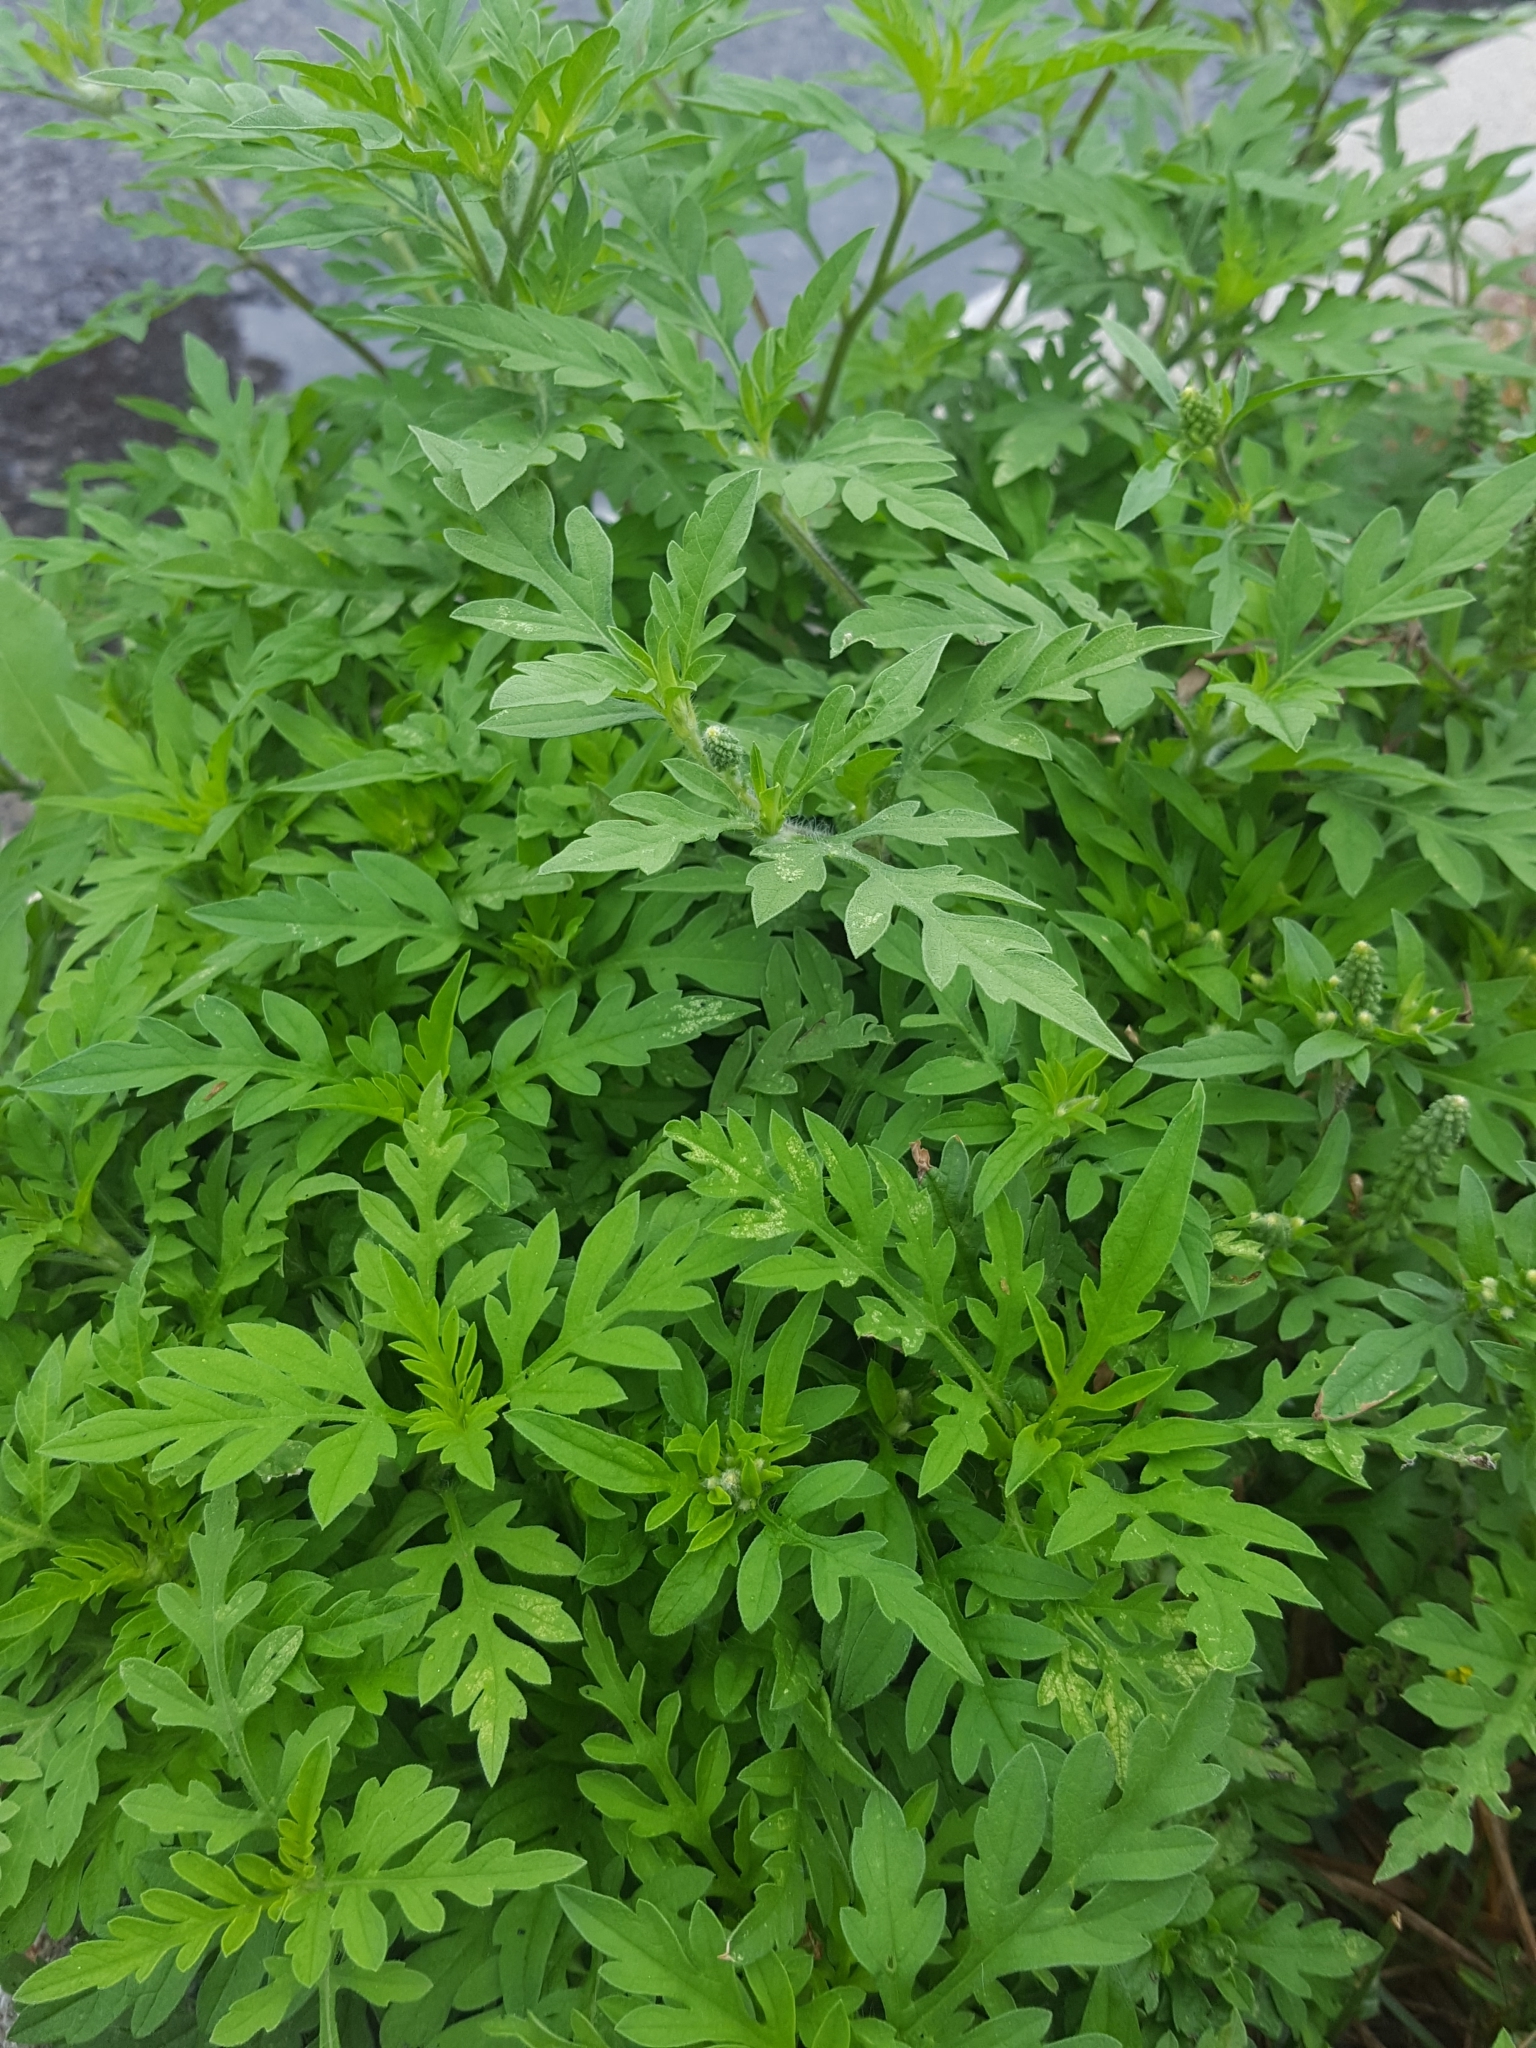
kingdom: Plantae
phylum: Tracheophyta
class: Magnoliopsida
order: Asterales
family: Asteraceae
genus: Ambrosia
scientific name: Ambrosia artemisiifolia
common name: Annual ragweed
